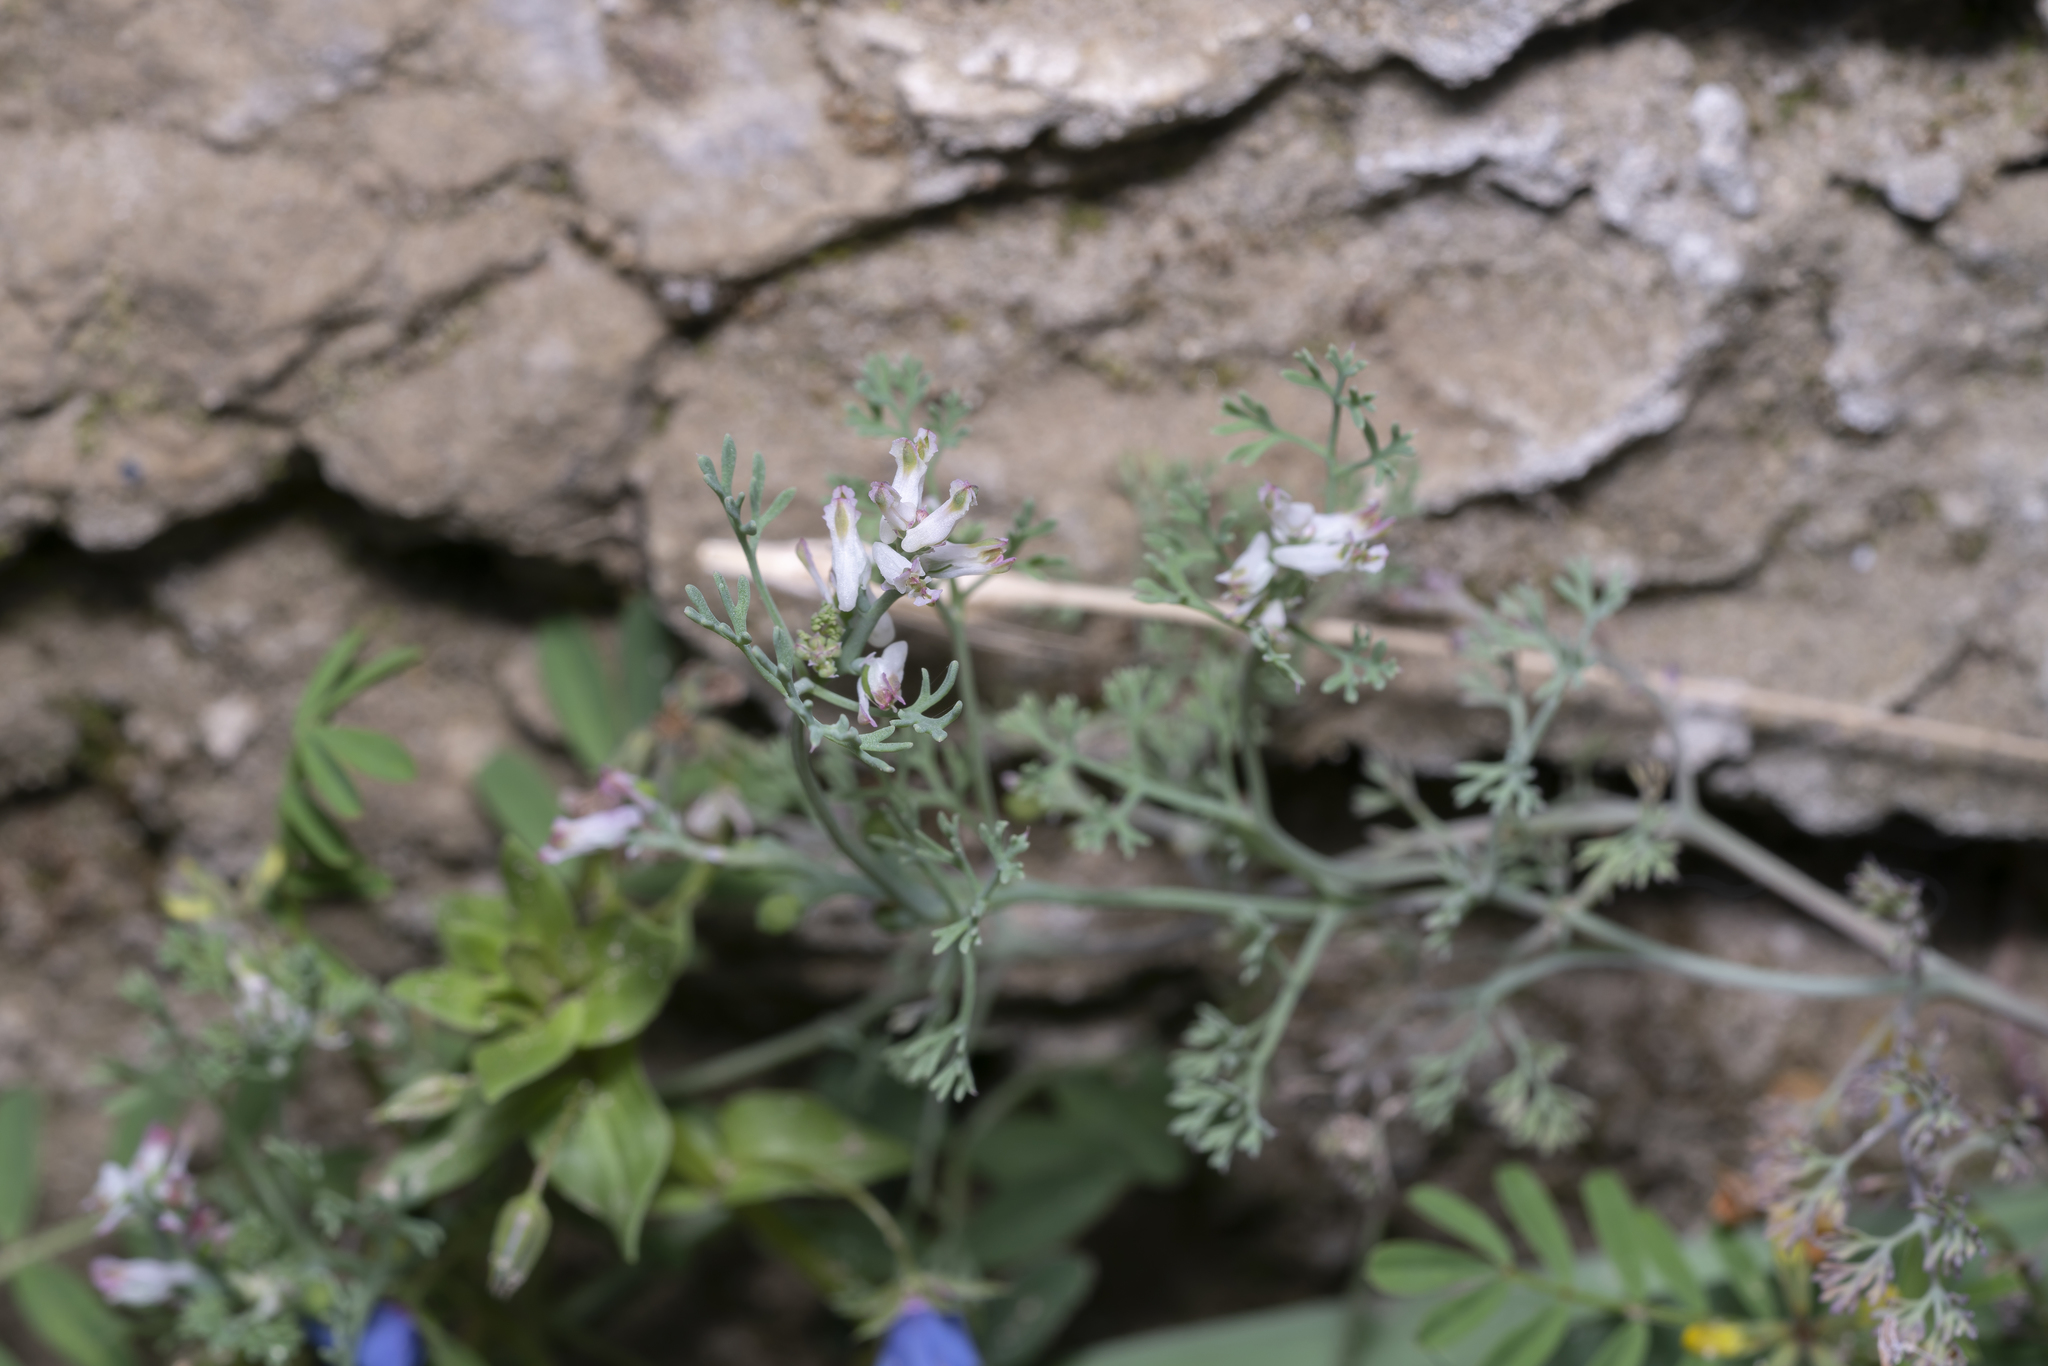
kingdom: Plantae
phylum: Tracheophyta
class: Magnoliopsida
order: Ranunculales
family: Papaveraceae
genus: Fumaria
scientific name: Fumaria parviflora
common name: Fine-leaved fumitory
